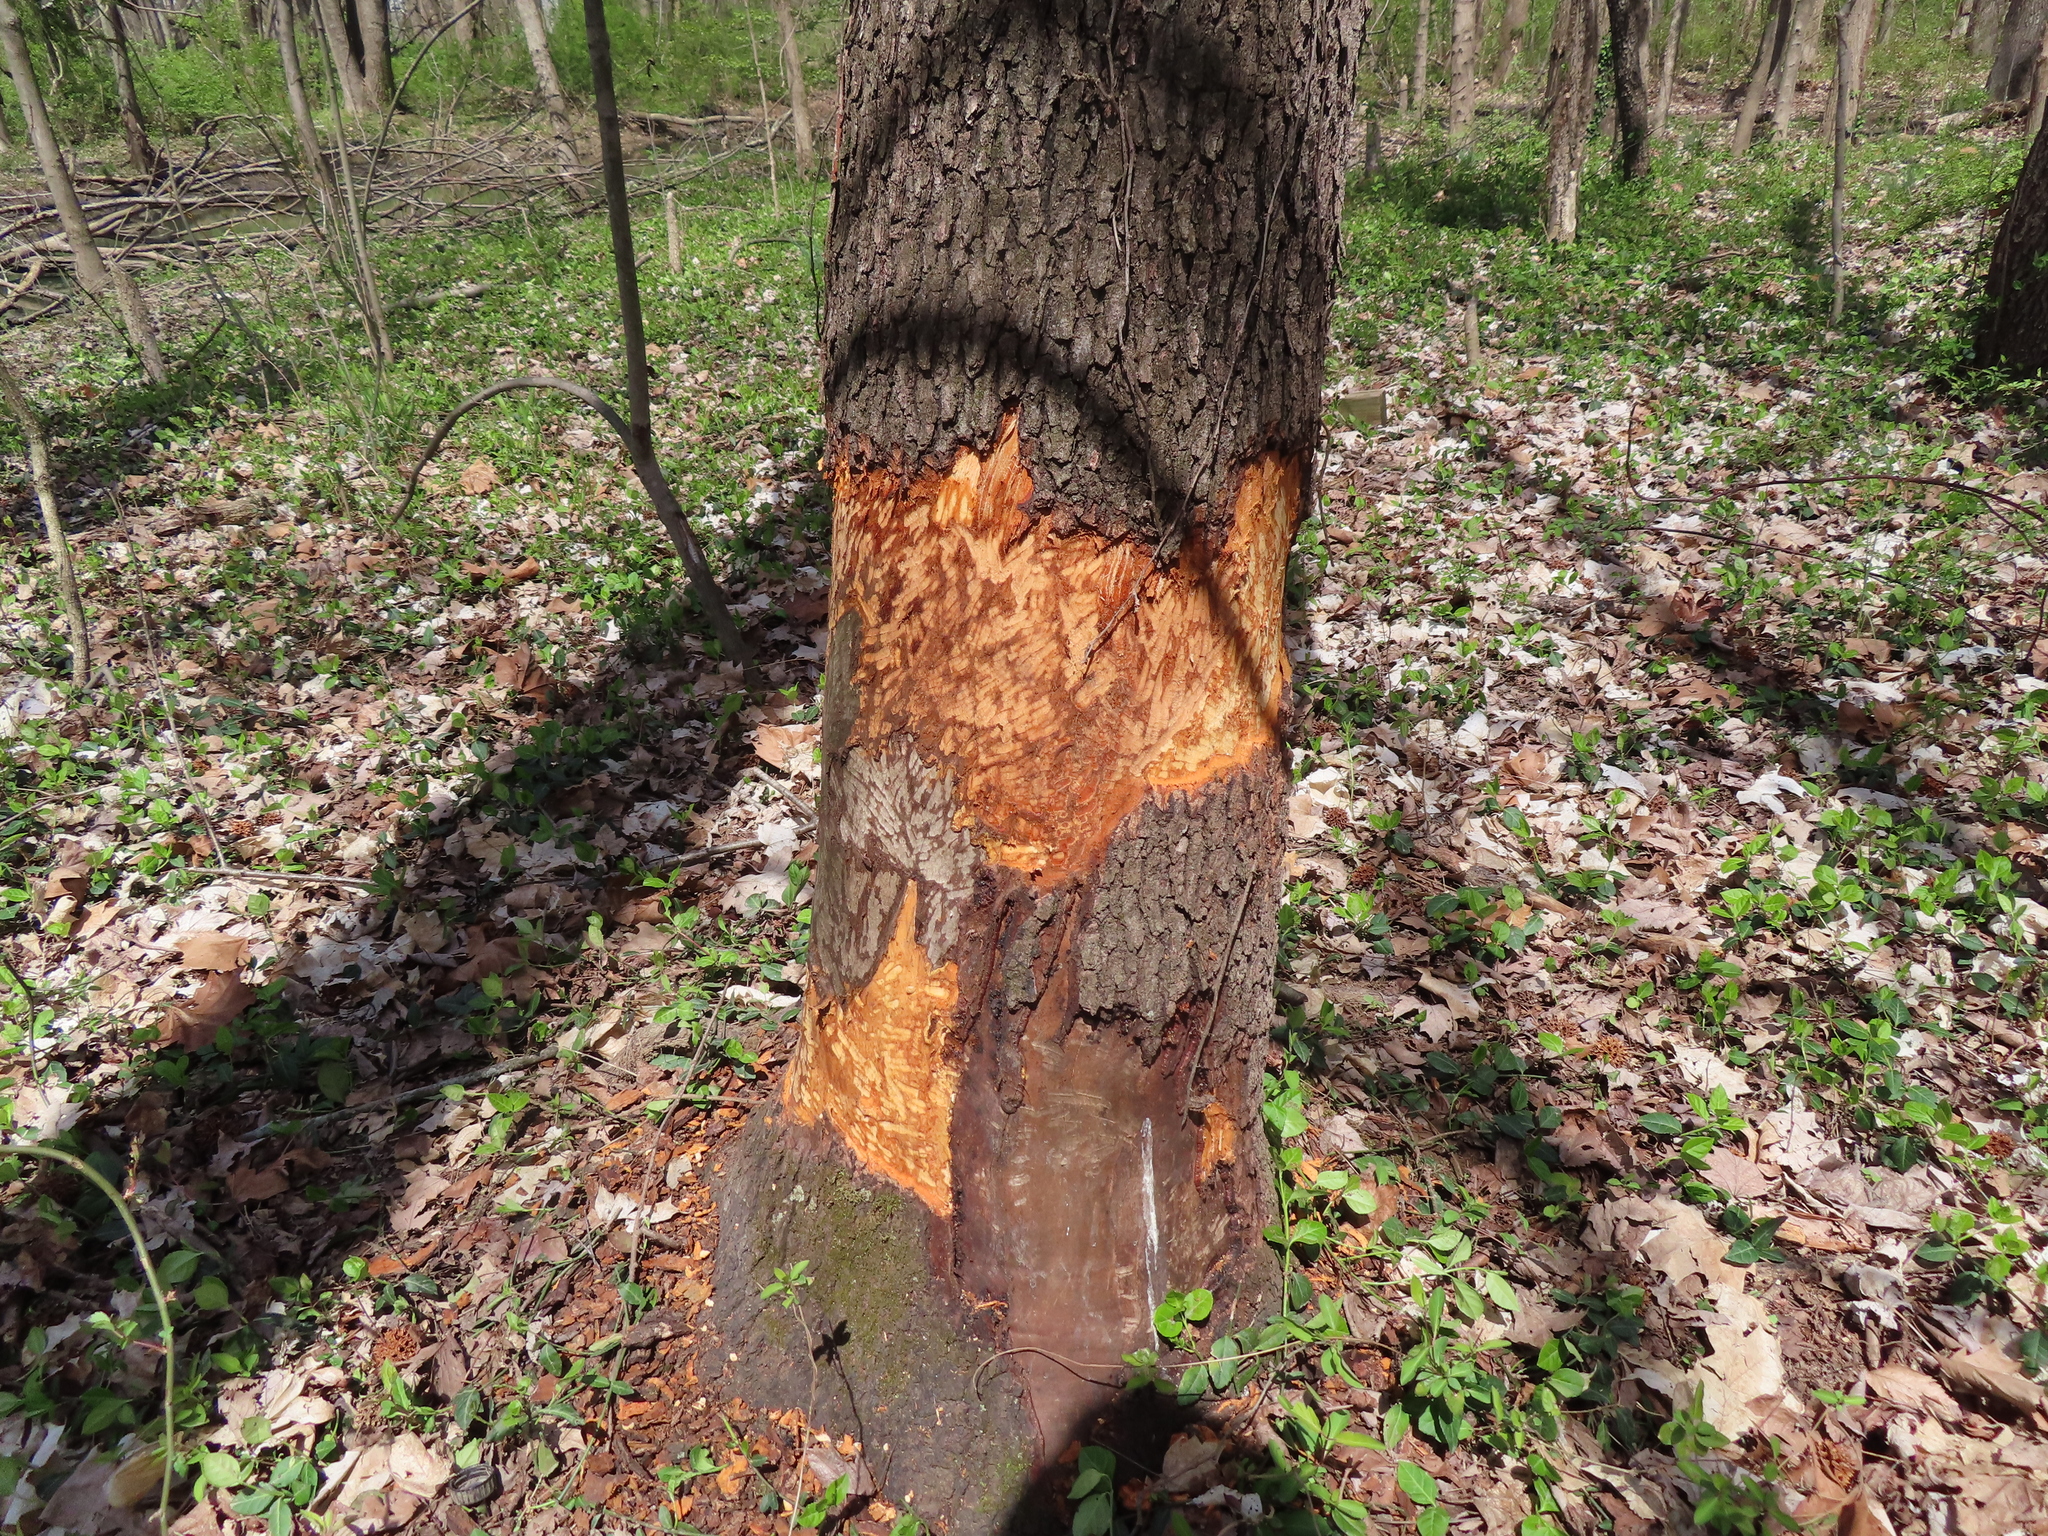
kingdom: Animalia
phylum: Chordata
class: Mammalia
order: Rodentia
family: Castoridae
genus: Castor
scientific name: Castor canadensis
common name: American beaver
